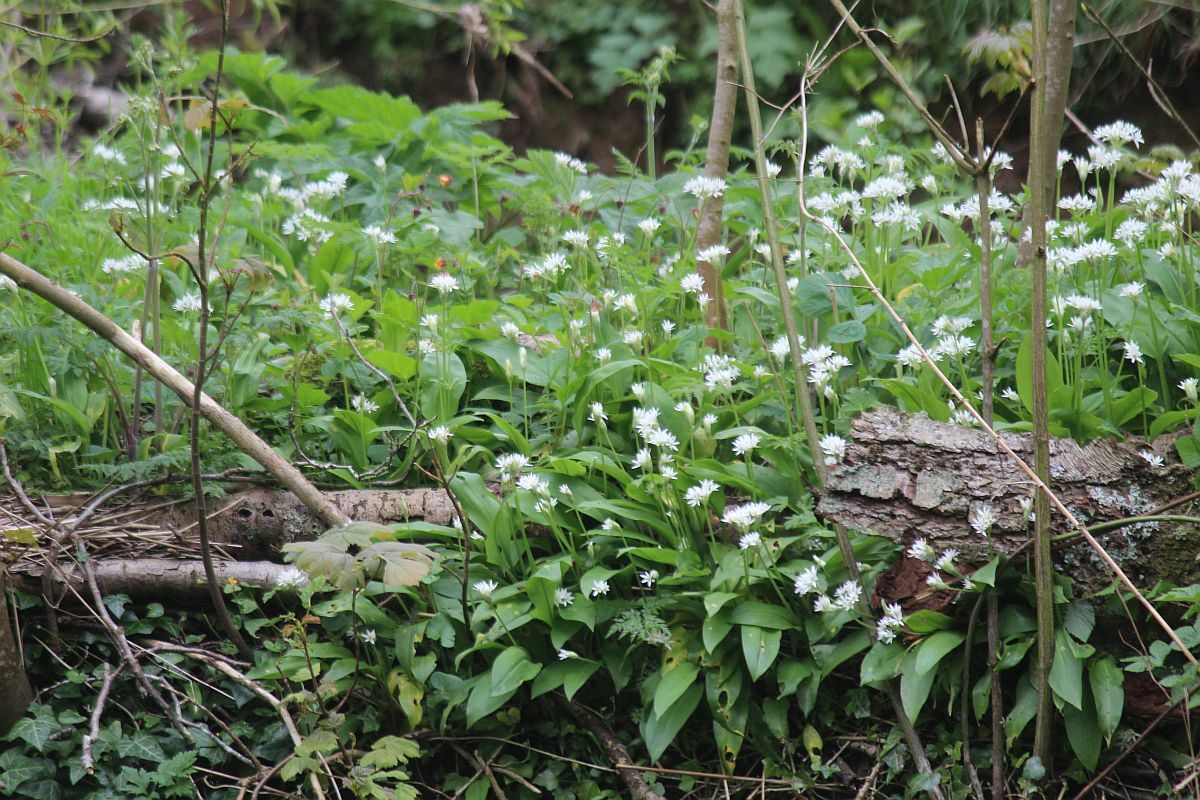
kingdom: Plantae
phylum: Tracheophyta
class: Liliopsida
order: Asparagales
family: Amaryllidaceae
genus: Allium
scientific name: Allium ursinum
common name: Ramsons
